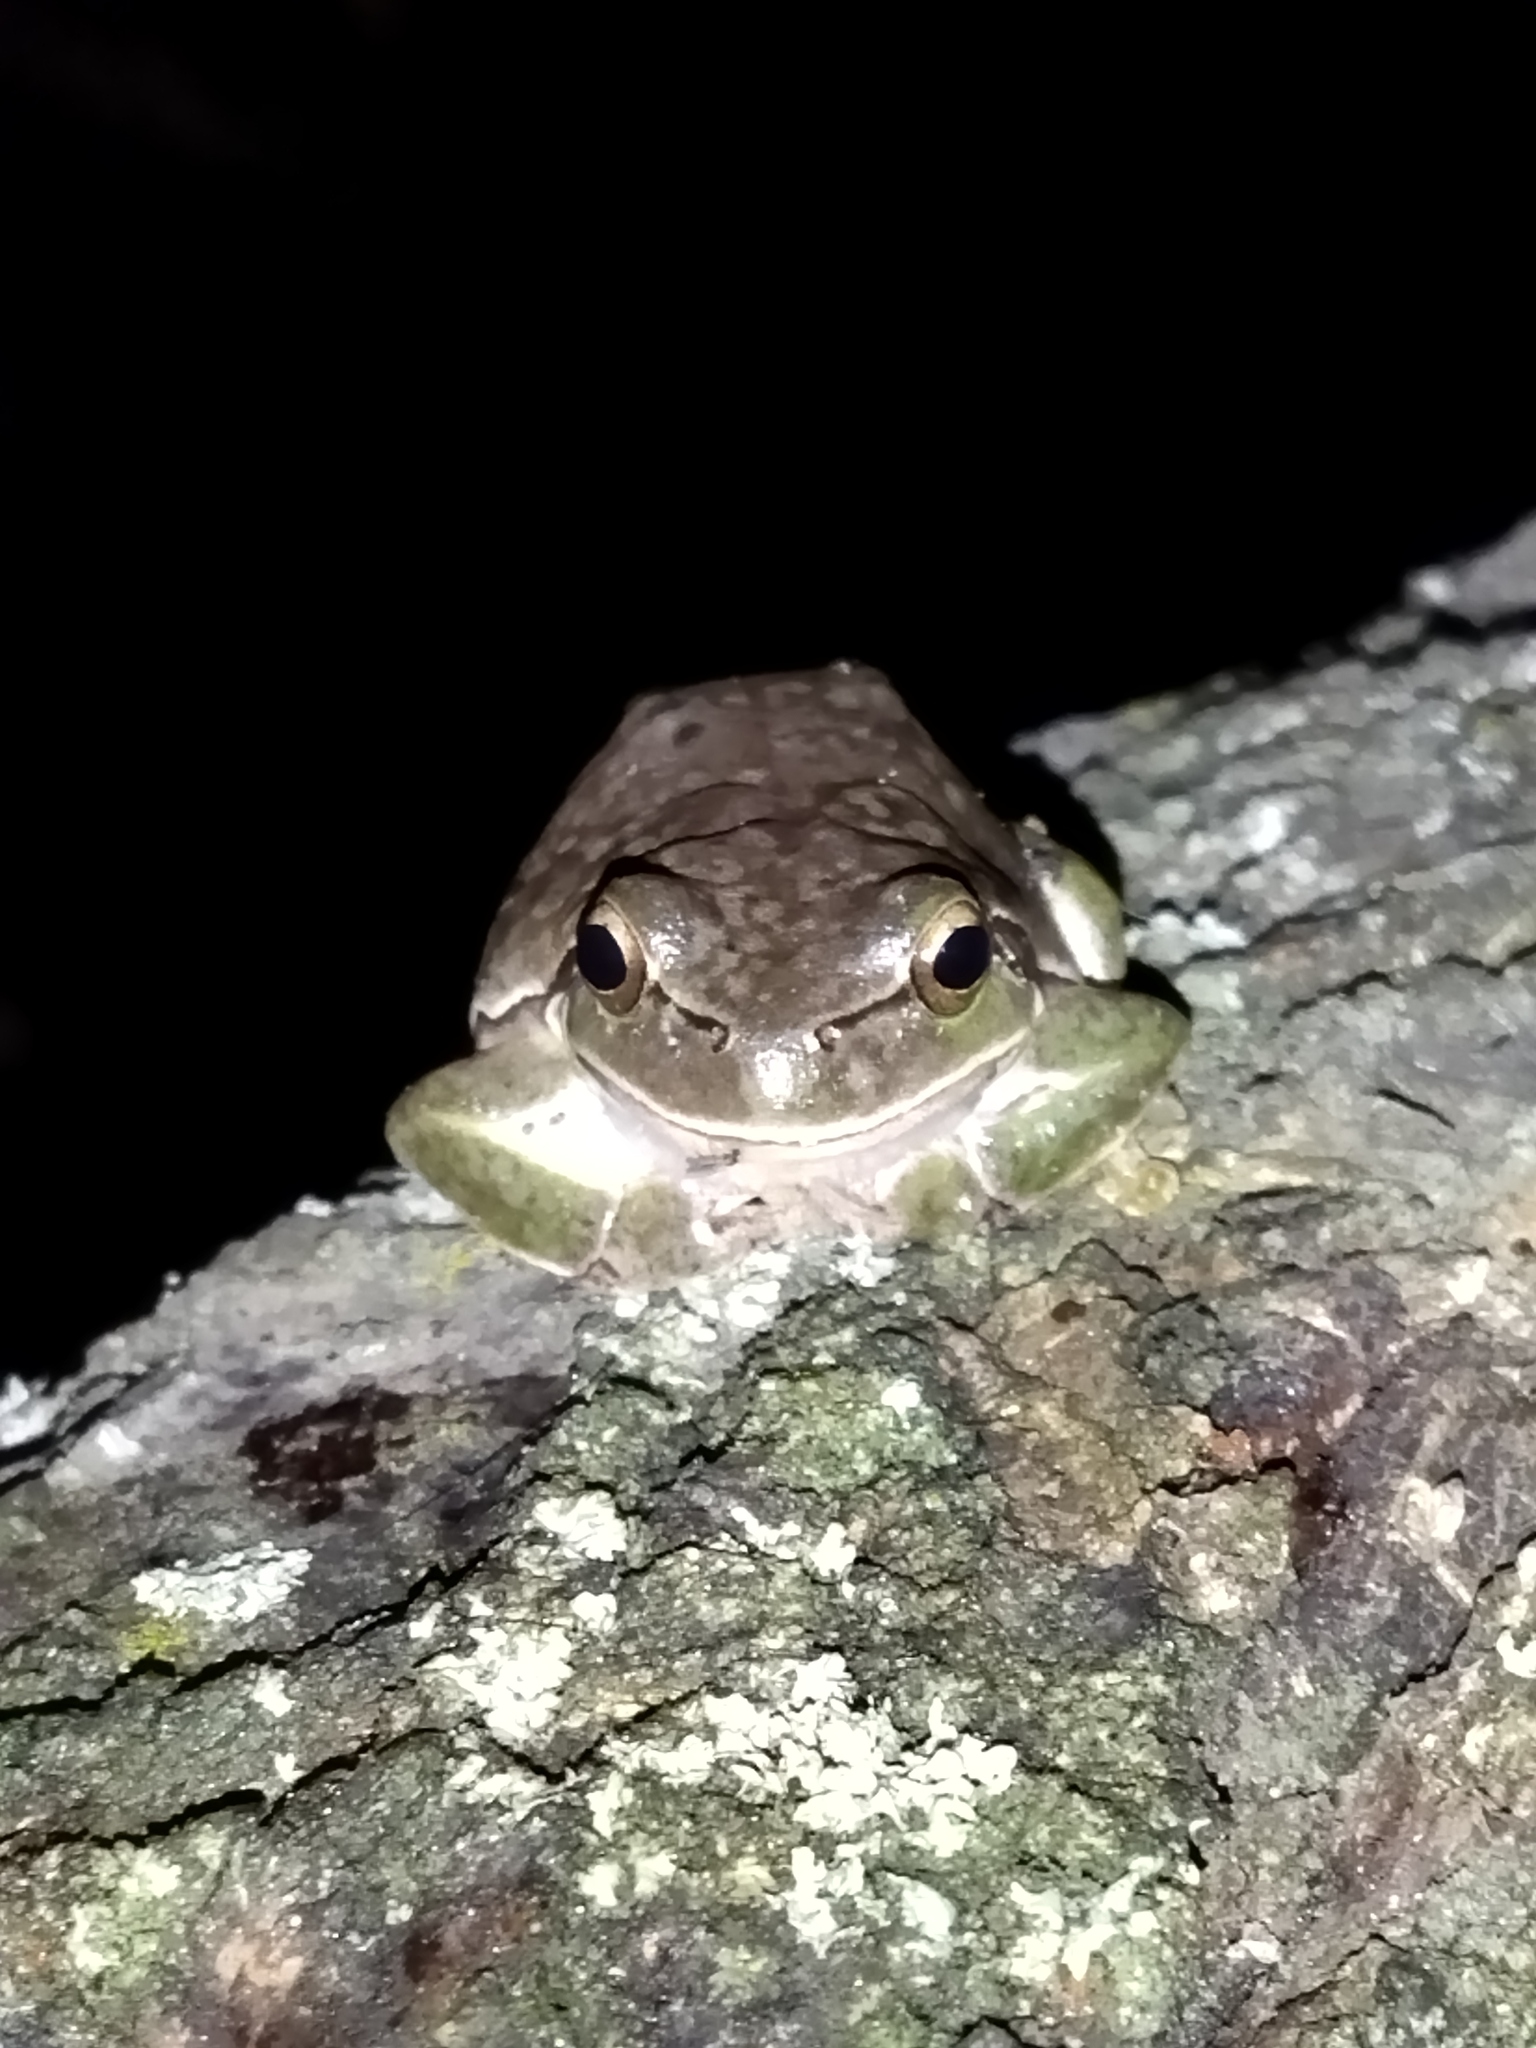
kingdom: Animalia
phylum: Chordata
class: Amphibia
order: Anura
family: Hylidae
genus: Hyla
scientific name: Hyla orientalis
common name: Caucasian treefrog
